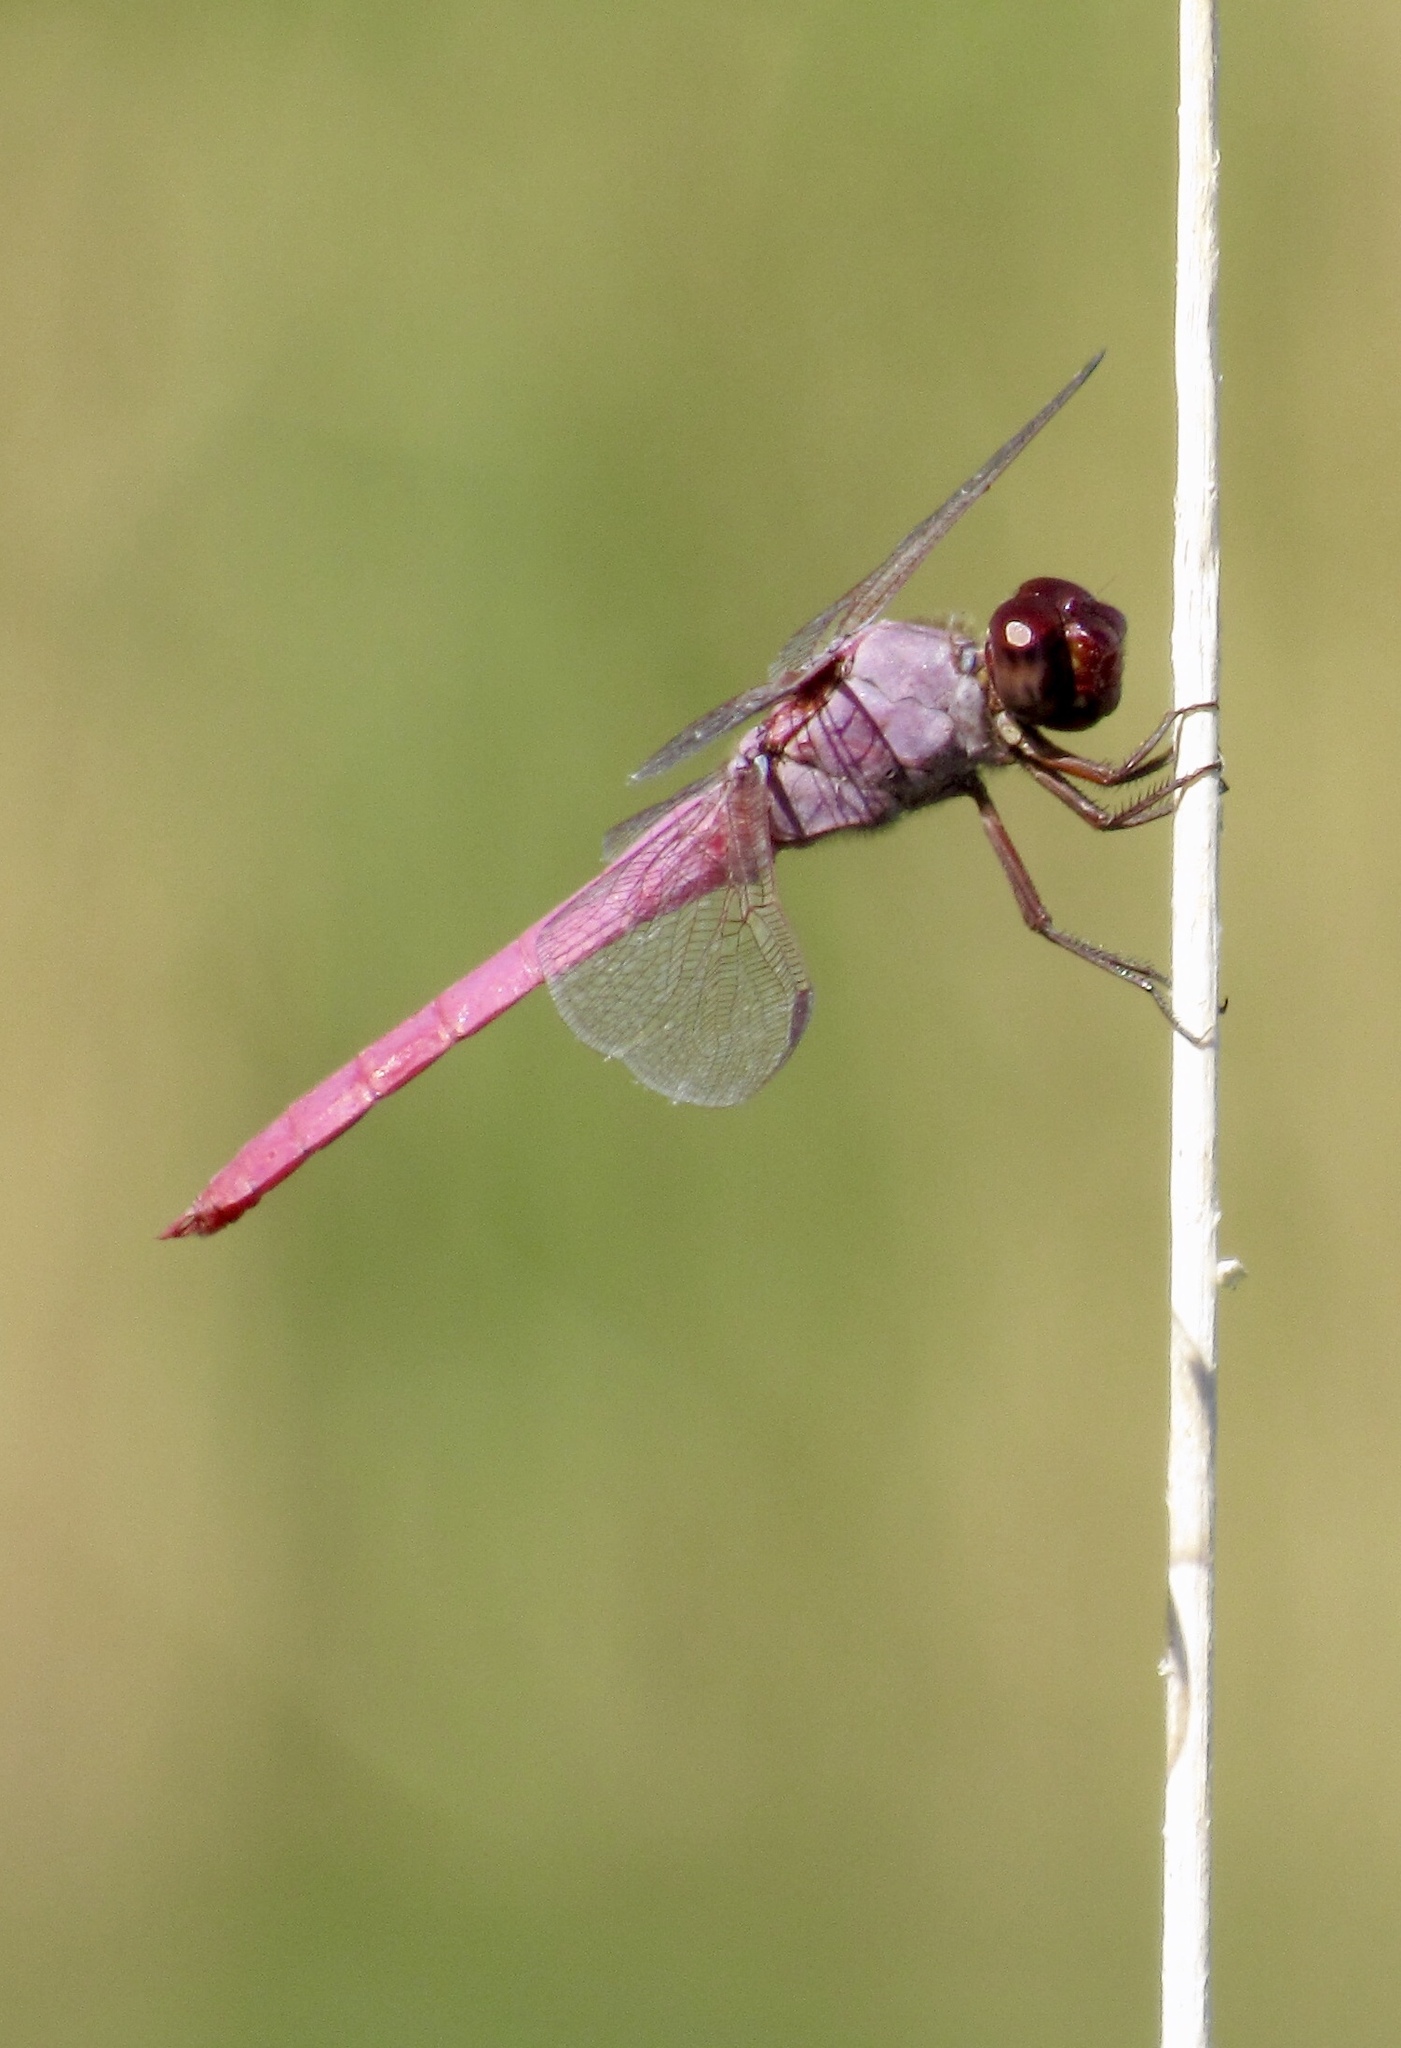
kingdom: Animalia
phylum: Arthropoda
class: Insecta
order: Odonata
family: Libellulidae
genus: Orthemis
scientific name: Orthemis ferruginea
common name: Roseate skimmer
